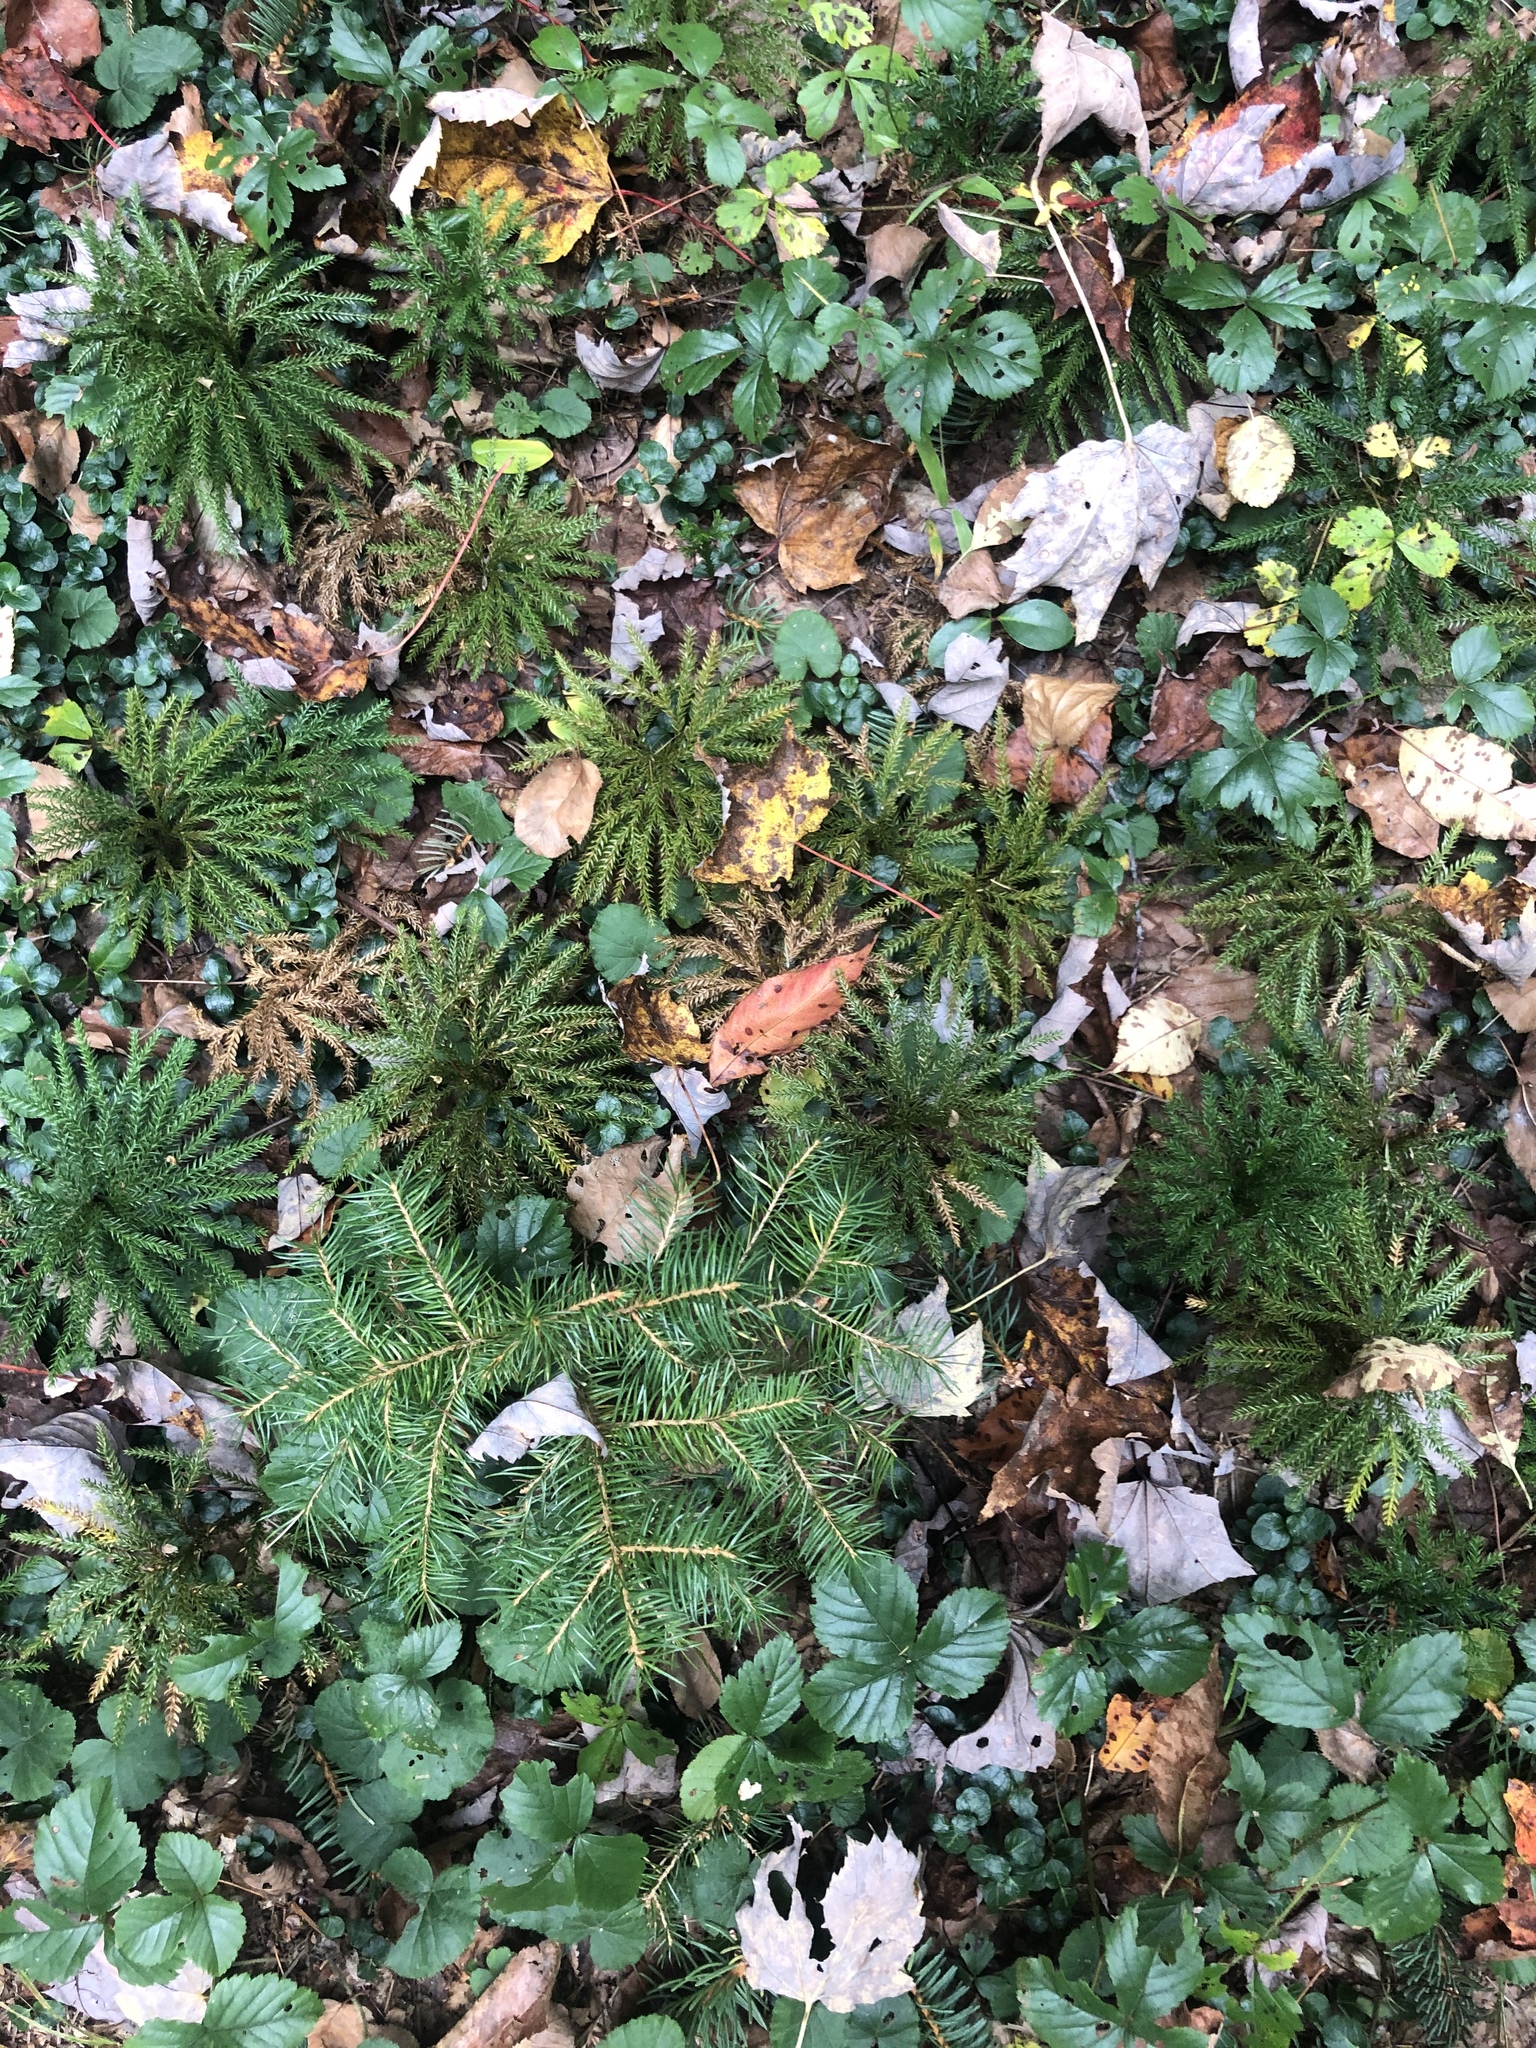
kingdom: Plantae
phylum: Tracheophyta
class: Lycopodiopsida
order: Lycopodiales
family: Lycopodiaceae
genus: Diphasiastrum
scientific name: Diphasiastrum digitatum
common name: Southern running-pine
